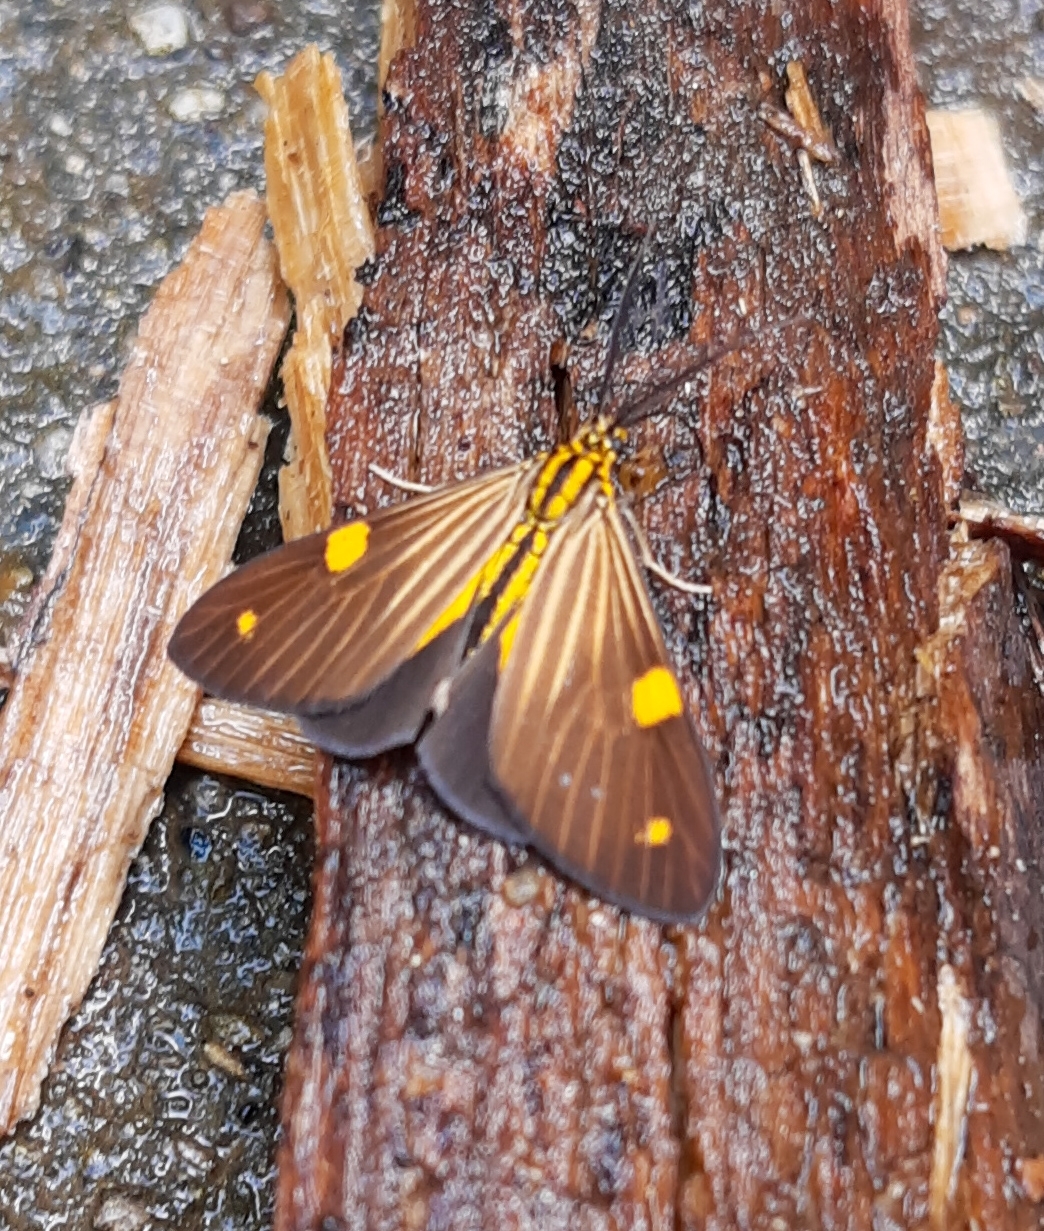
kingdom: Animalia
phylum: Arthropoda
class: Insecta
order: Lepidoptera
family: Notodontidae
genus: Phaeochlaena
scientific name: Phaeochlaena
